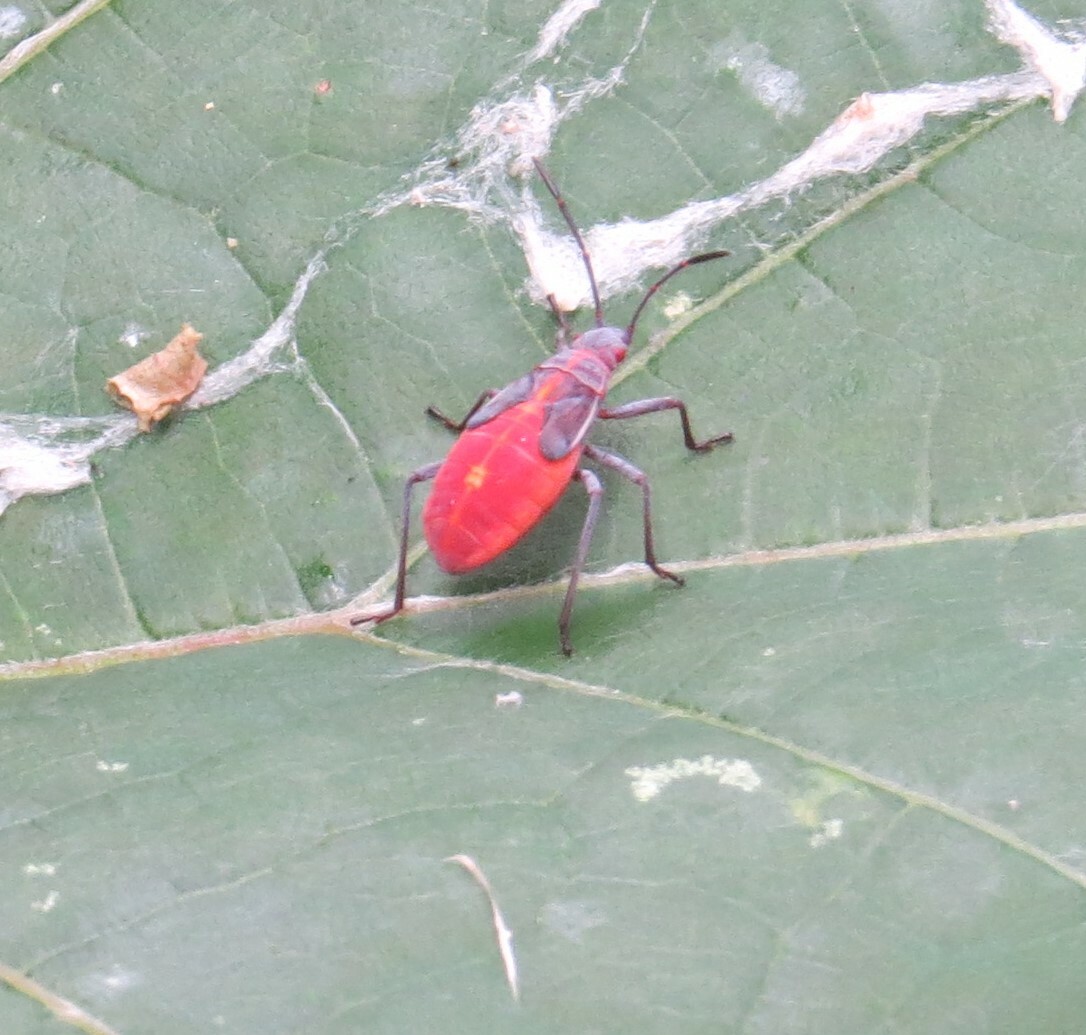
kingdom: Animalia
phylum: Arthropoda
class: Insecta
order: Hemiptera
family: Rhopalidae
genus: Boisea
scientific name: Boisea trivittata
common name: Boxelder bug
